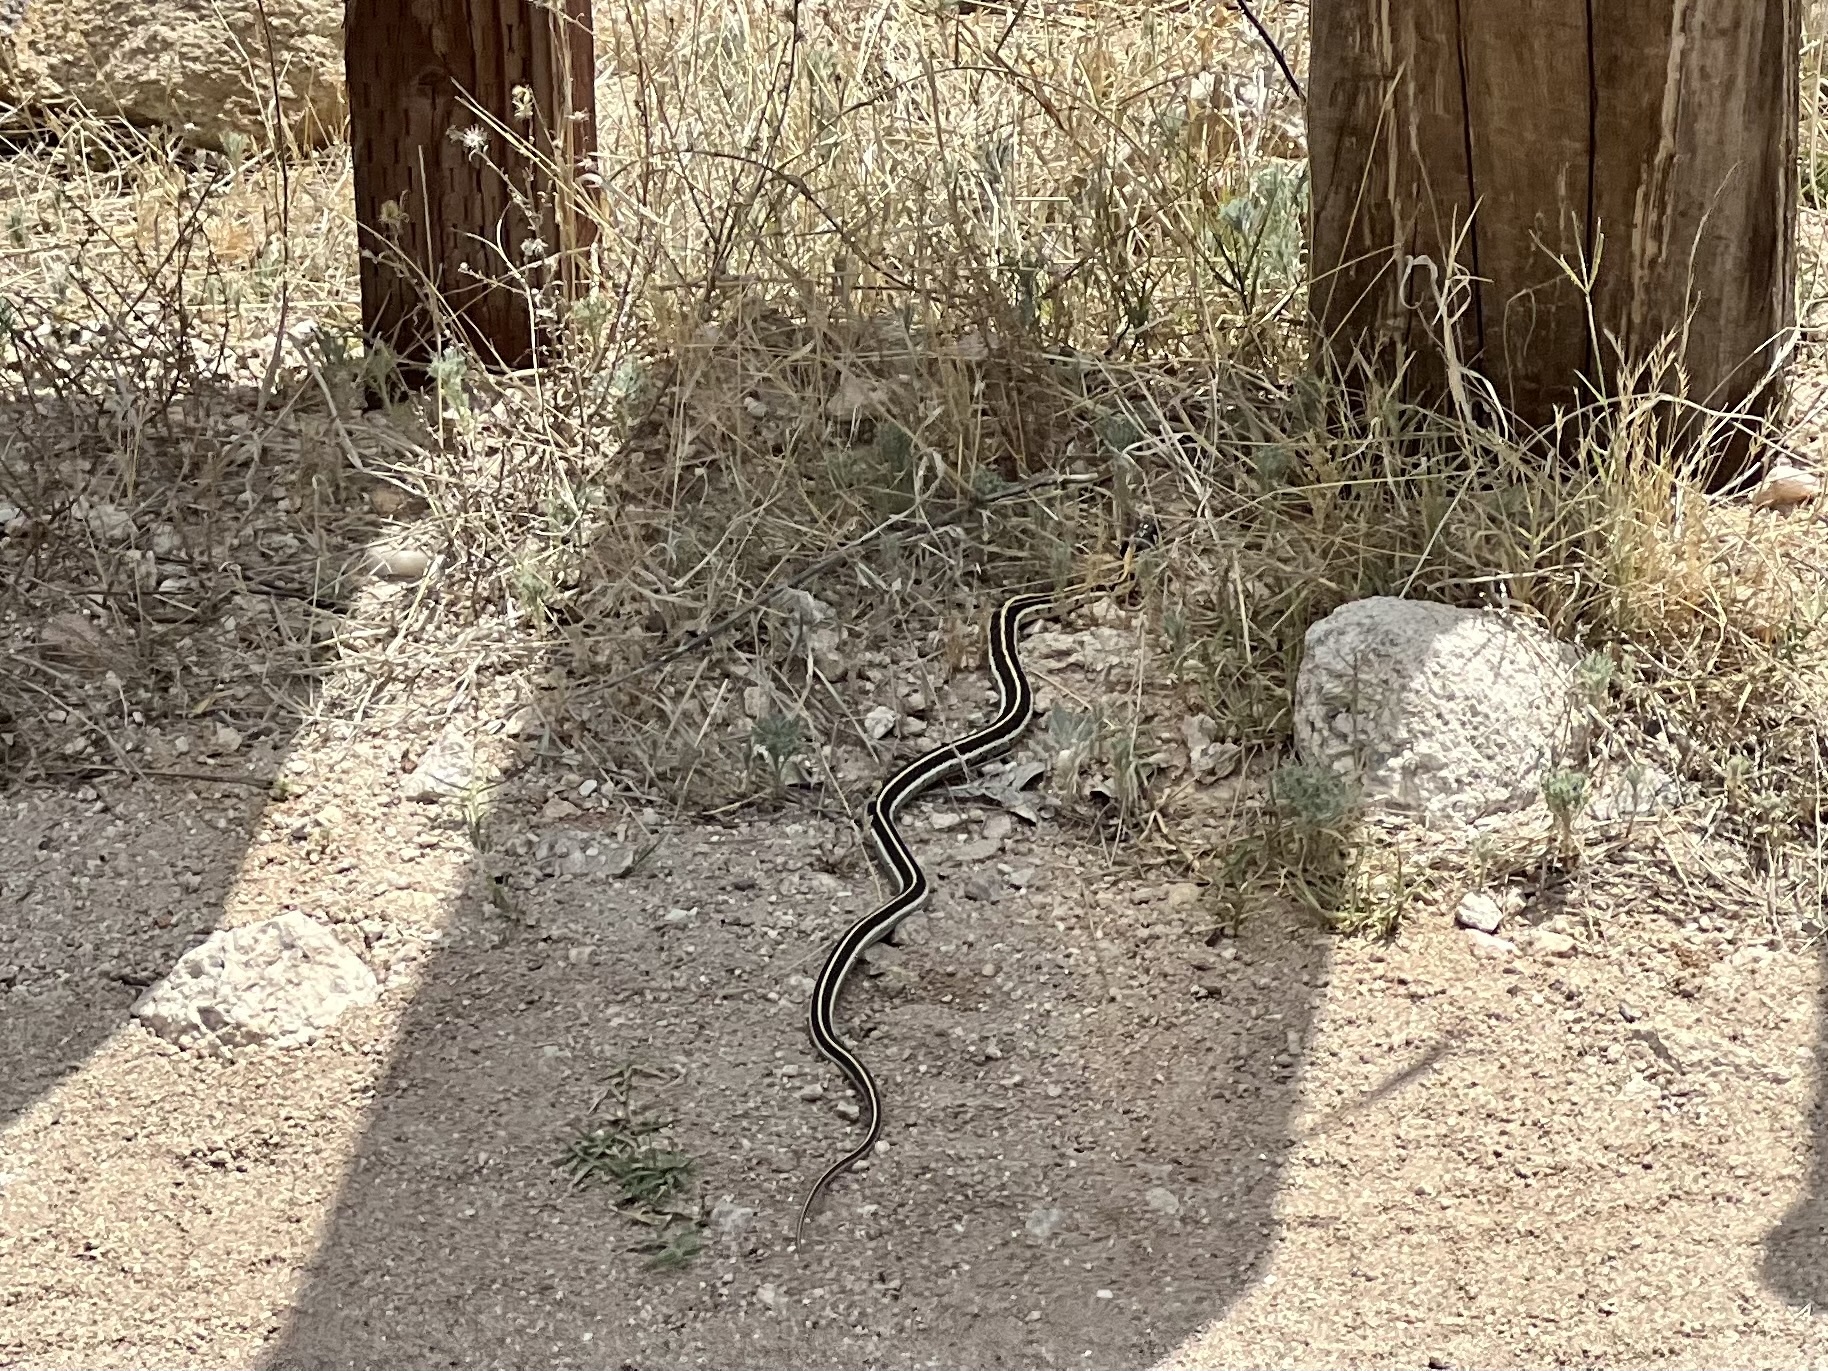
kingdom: Animalia
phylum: Chordata
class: Squamata
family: Colubridae
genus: Thamnophis
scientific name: Thamnophis cyrtopsis
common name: Black-necked gartersnake
